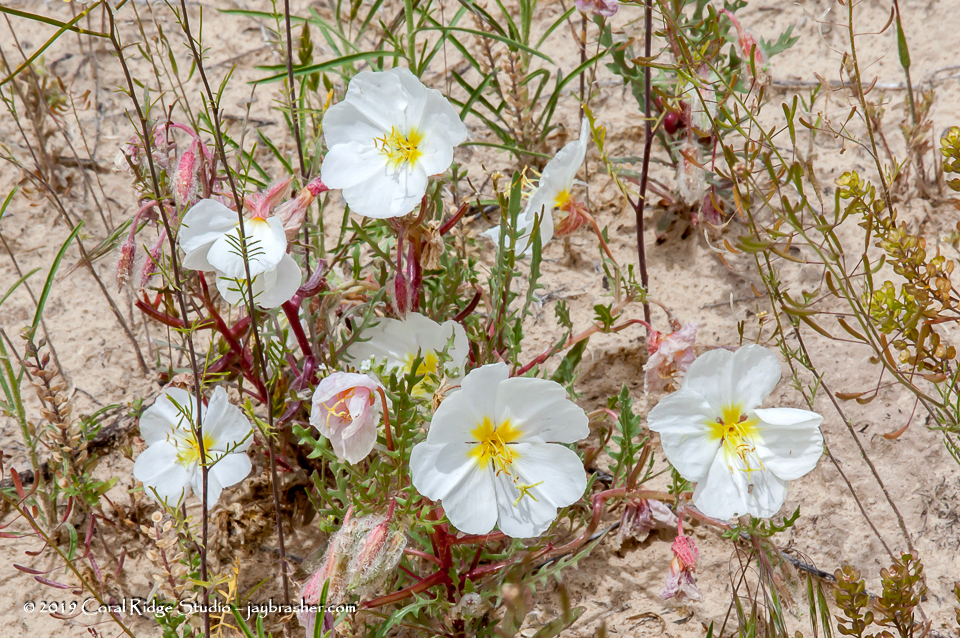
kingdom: Plantae
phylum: Tracheophyta
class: Magnoliopsida
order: Myrtales
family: Onagraceae
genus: Oenothera
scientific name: Oenothera pallida
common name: Pale evening-primrose
